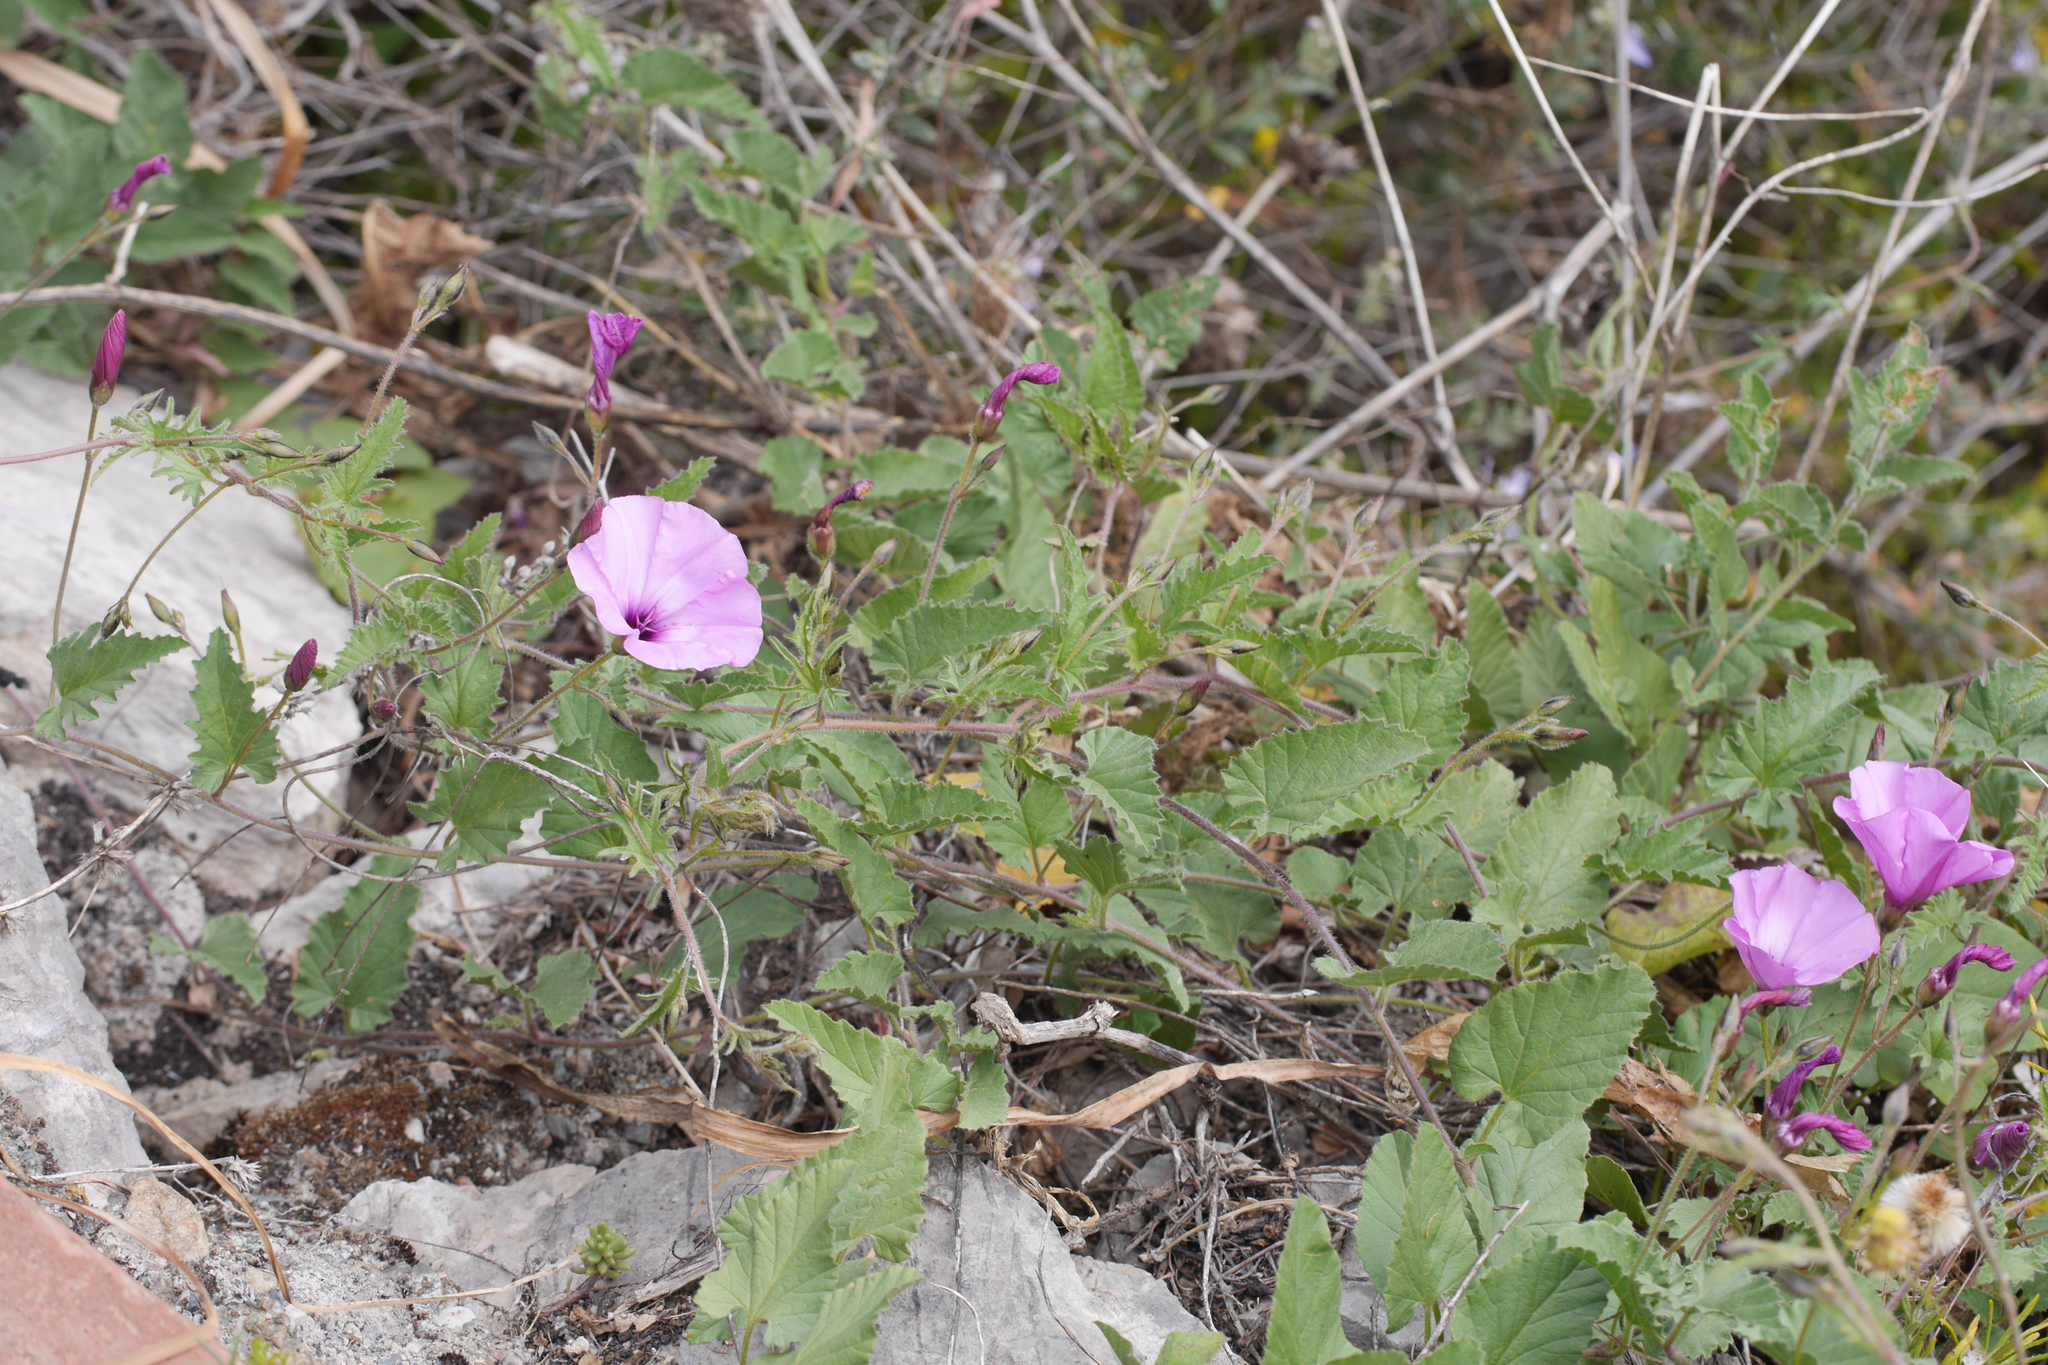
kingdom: Plantae
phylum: Tracheophyta
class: Magnoliopsida
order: Solanales
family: Convolvulaceae
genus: Convolvulus
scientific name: Convolvulus althaeoides
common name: Mallow bindweed
